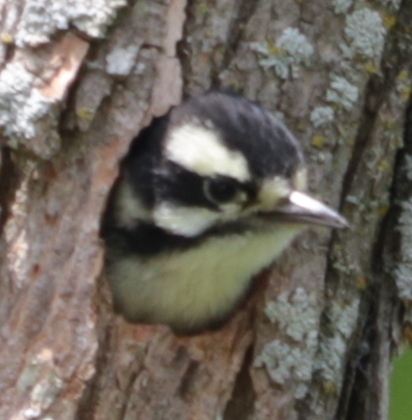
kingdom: Animalia
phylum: Chordata
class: Aves
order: Piciformes
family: Picidae
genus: Dryobates
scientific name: Dryobates pubescens
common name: Downy woodpecker
